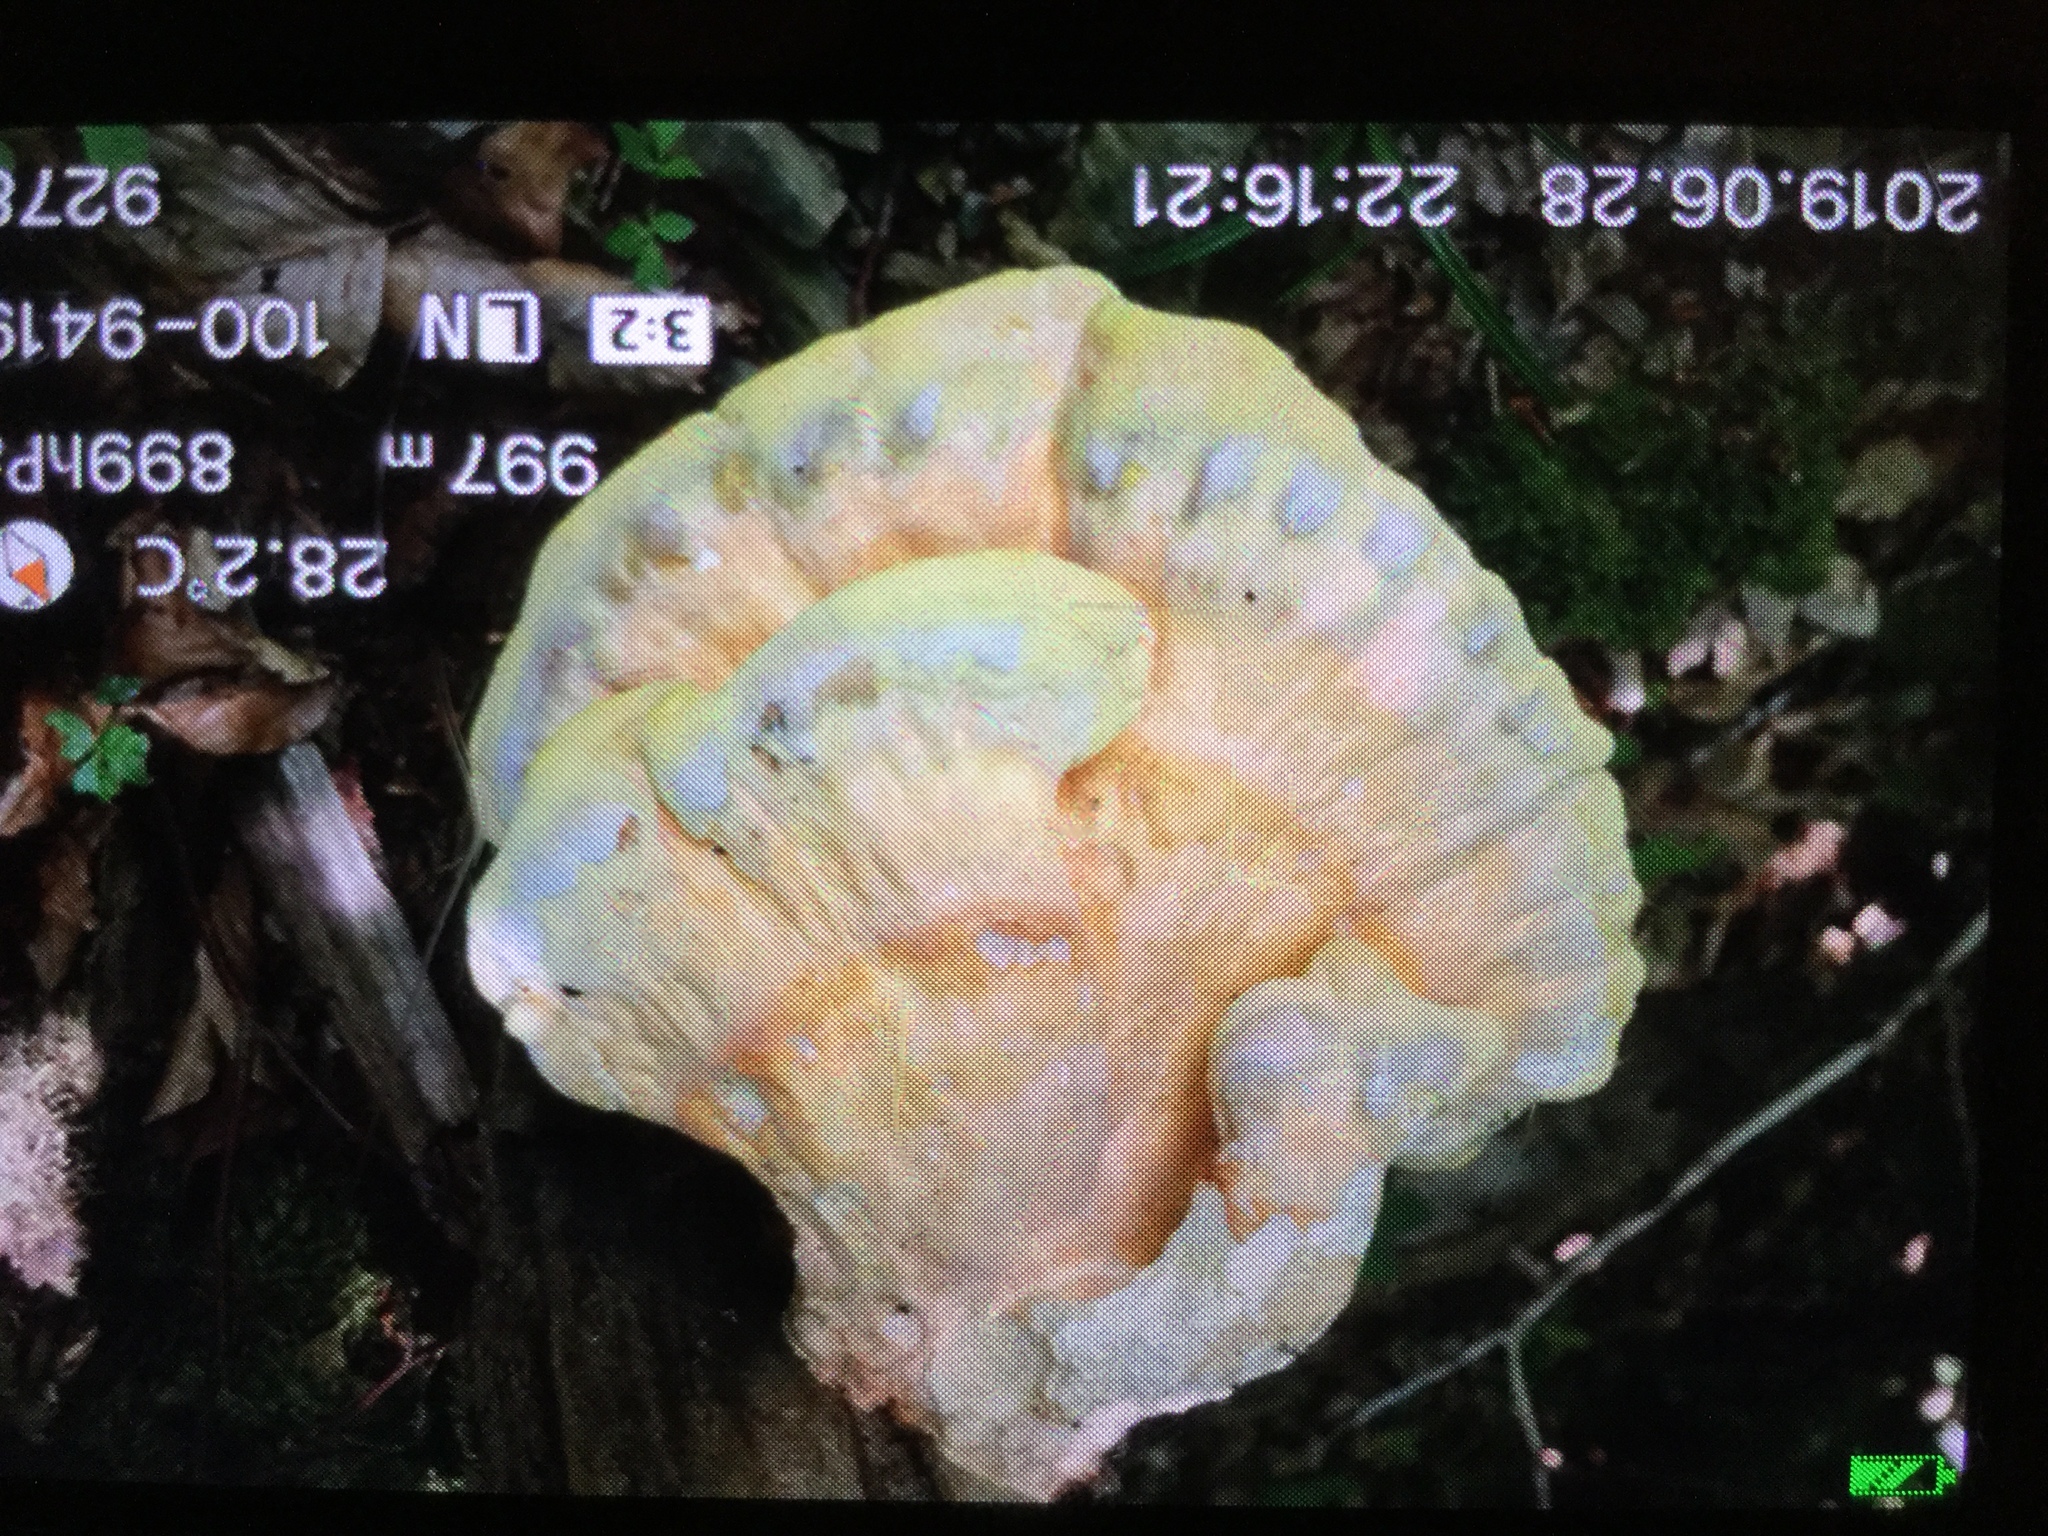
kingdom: Fungi
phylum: Basidiomycota
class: Agaricomycetes
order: Polyporales
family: Laetiporaceae
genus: Laetiporus
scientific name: Laetiporus sulphureus
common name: Chicken of the woods
